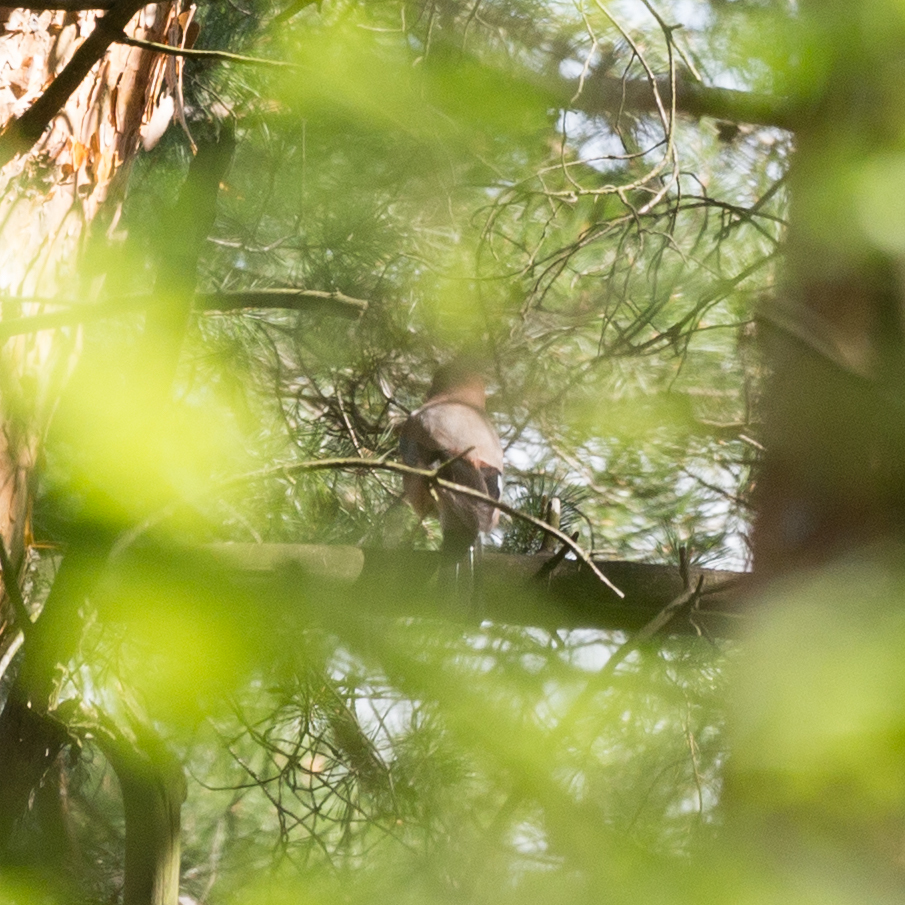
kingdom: Animalia
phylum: Chordata
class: Aves
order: Passeriformes
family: Corvidae
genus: Garrulus
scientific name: Garrulus glandarius
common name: Eurasian jay
